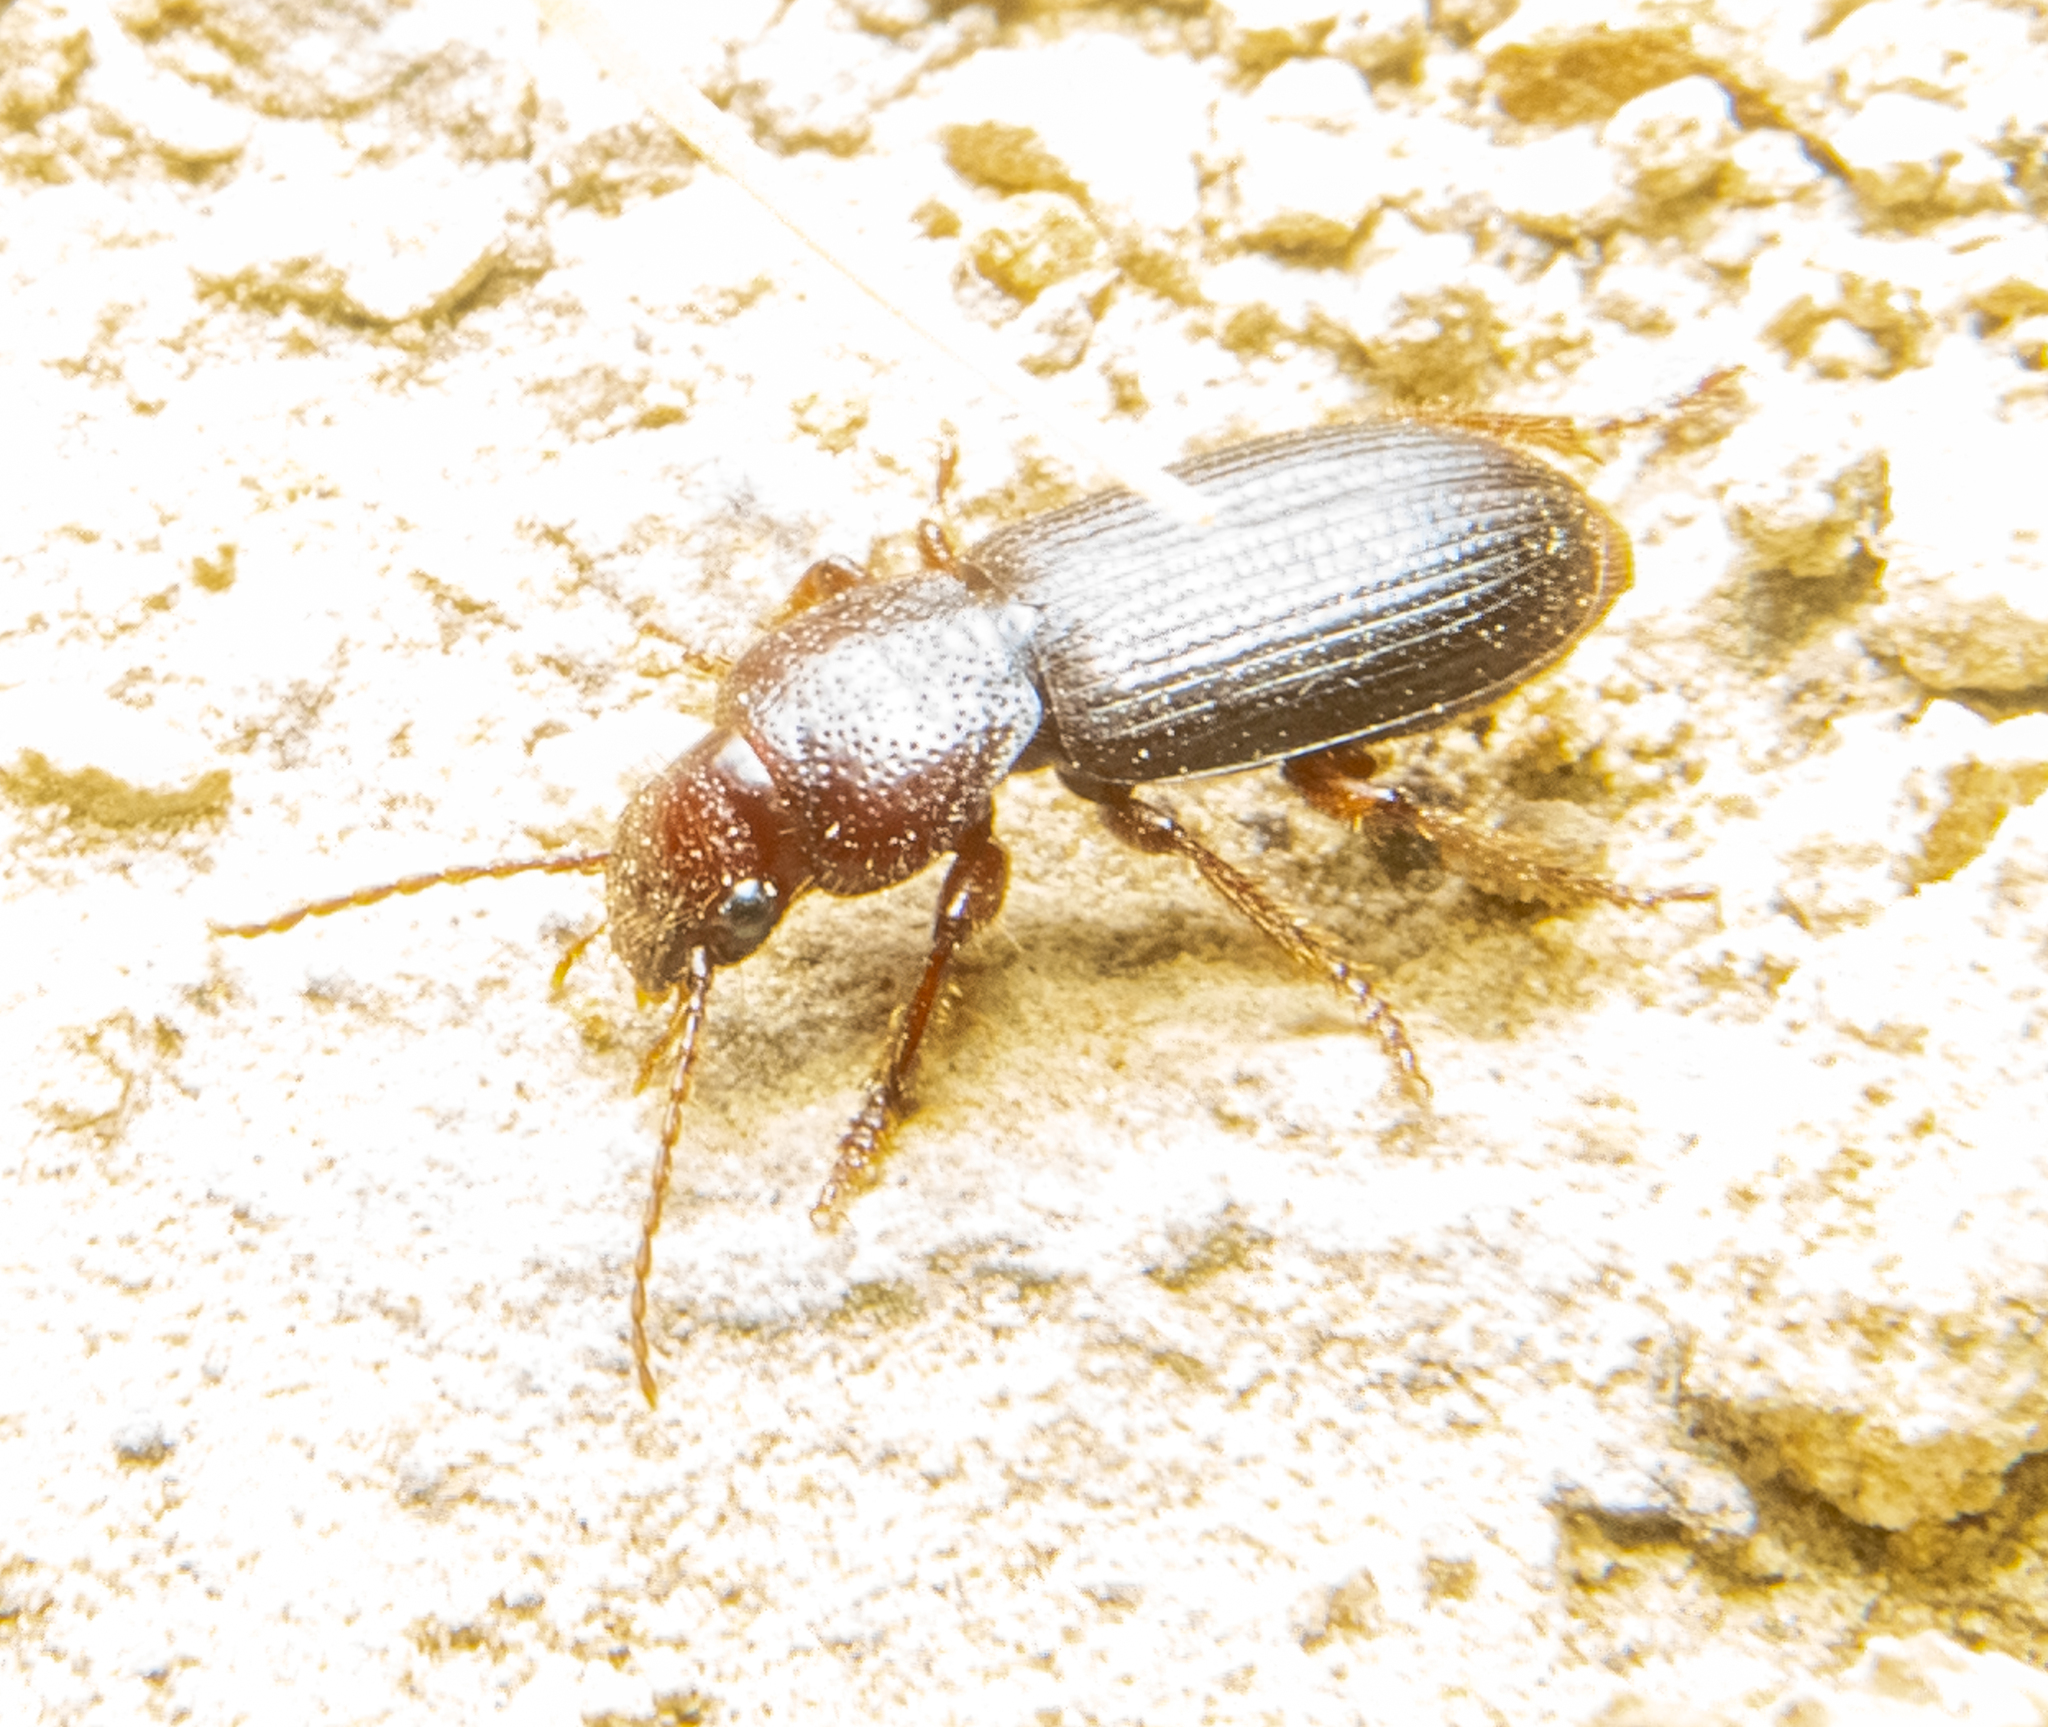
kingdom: Animalia
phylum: Arthropoda
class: Insecta
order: Coleoptera
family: Carabidae
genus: Dicheirus
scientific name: Dicheirus dilatatus
